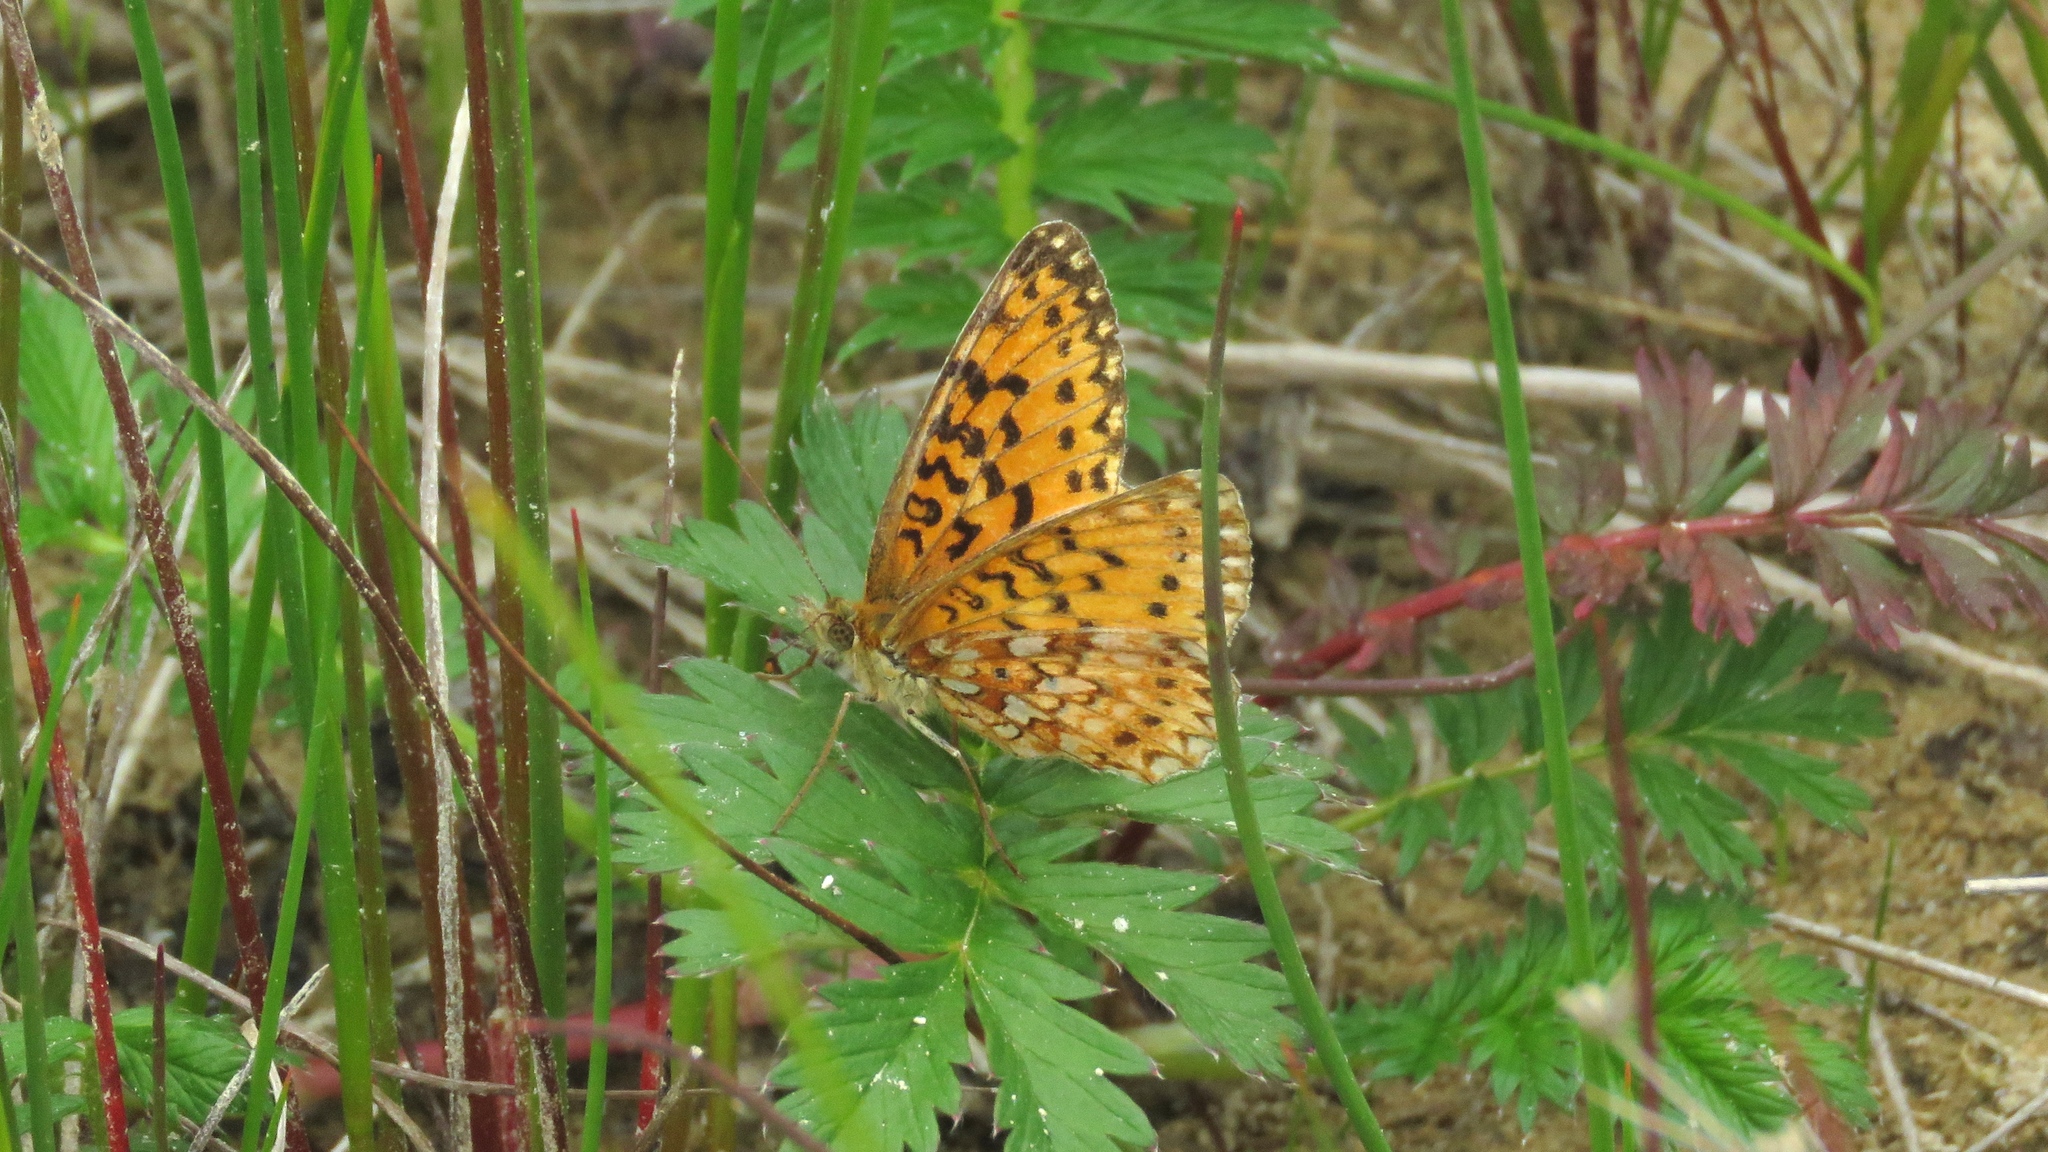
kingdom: Animalia
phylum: Arthropoda
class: Insecta
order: Lepidoptera
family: Nymphalidae
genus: Boloria
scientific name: Boloria
